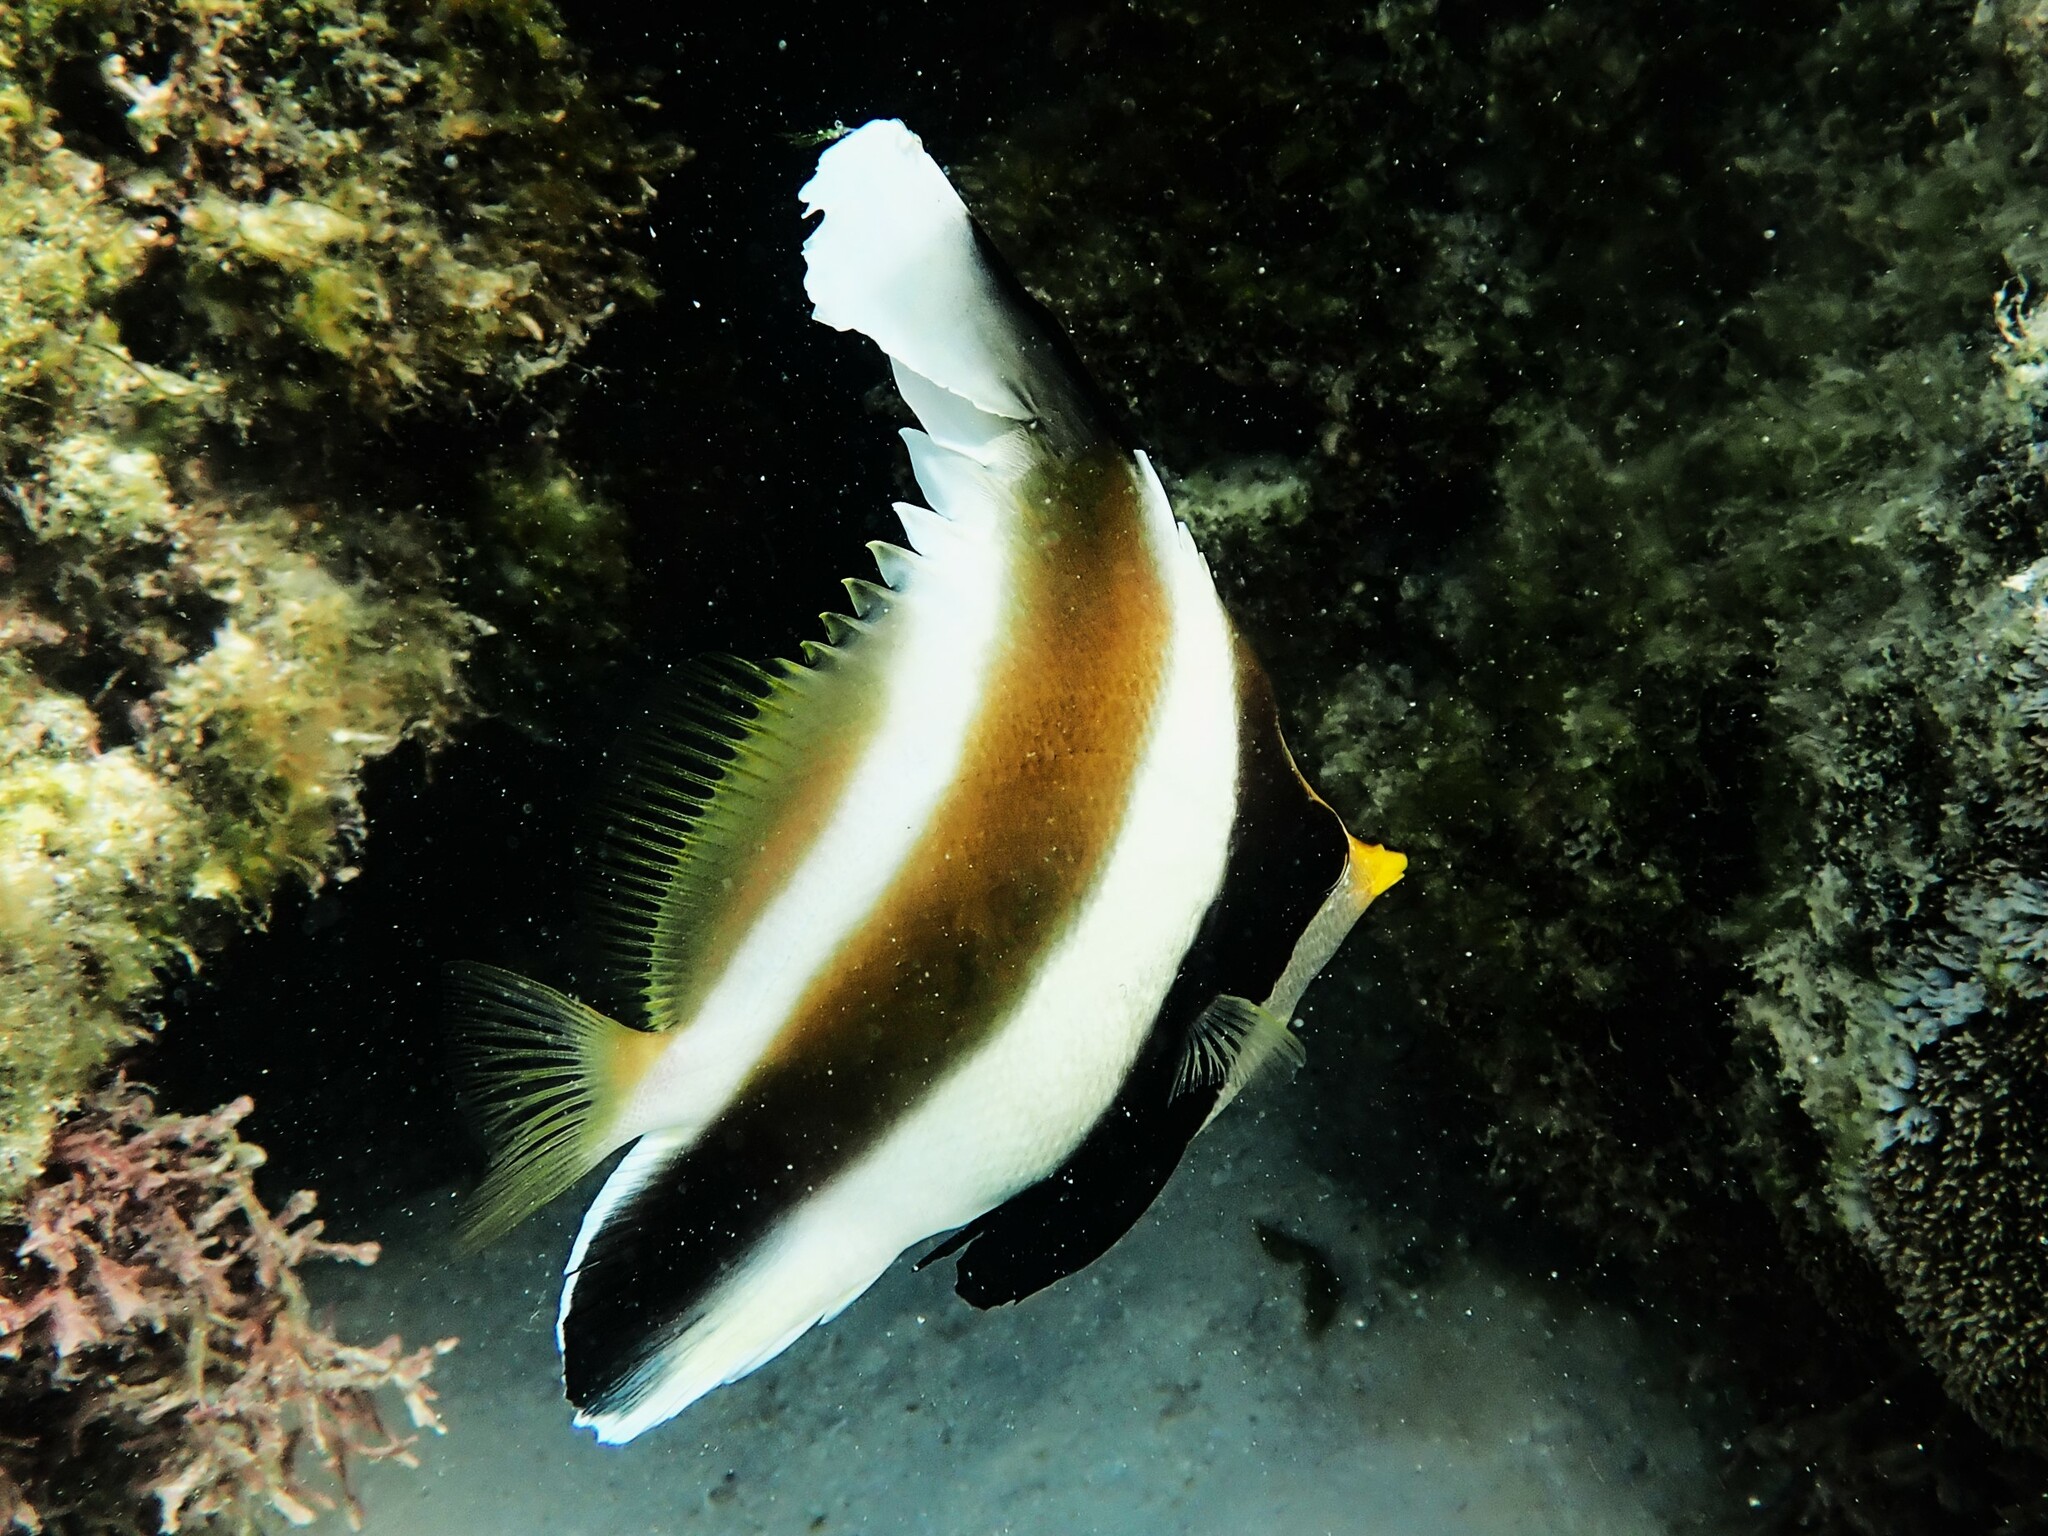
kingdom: Animalia
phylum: Chordata
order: Perciformes
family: Chaetodontidae
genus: Heniochus
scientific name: Heniochus chrysostomus
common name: Horned bannerfish
